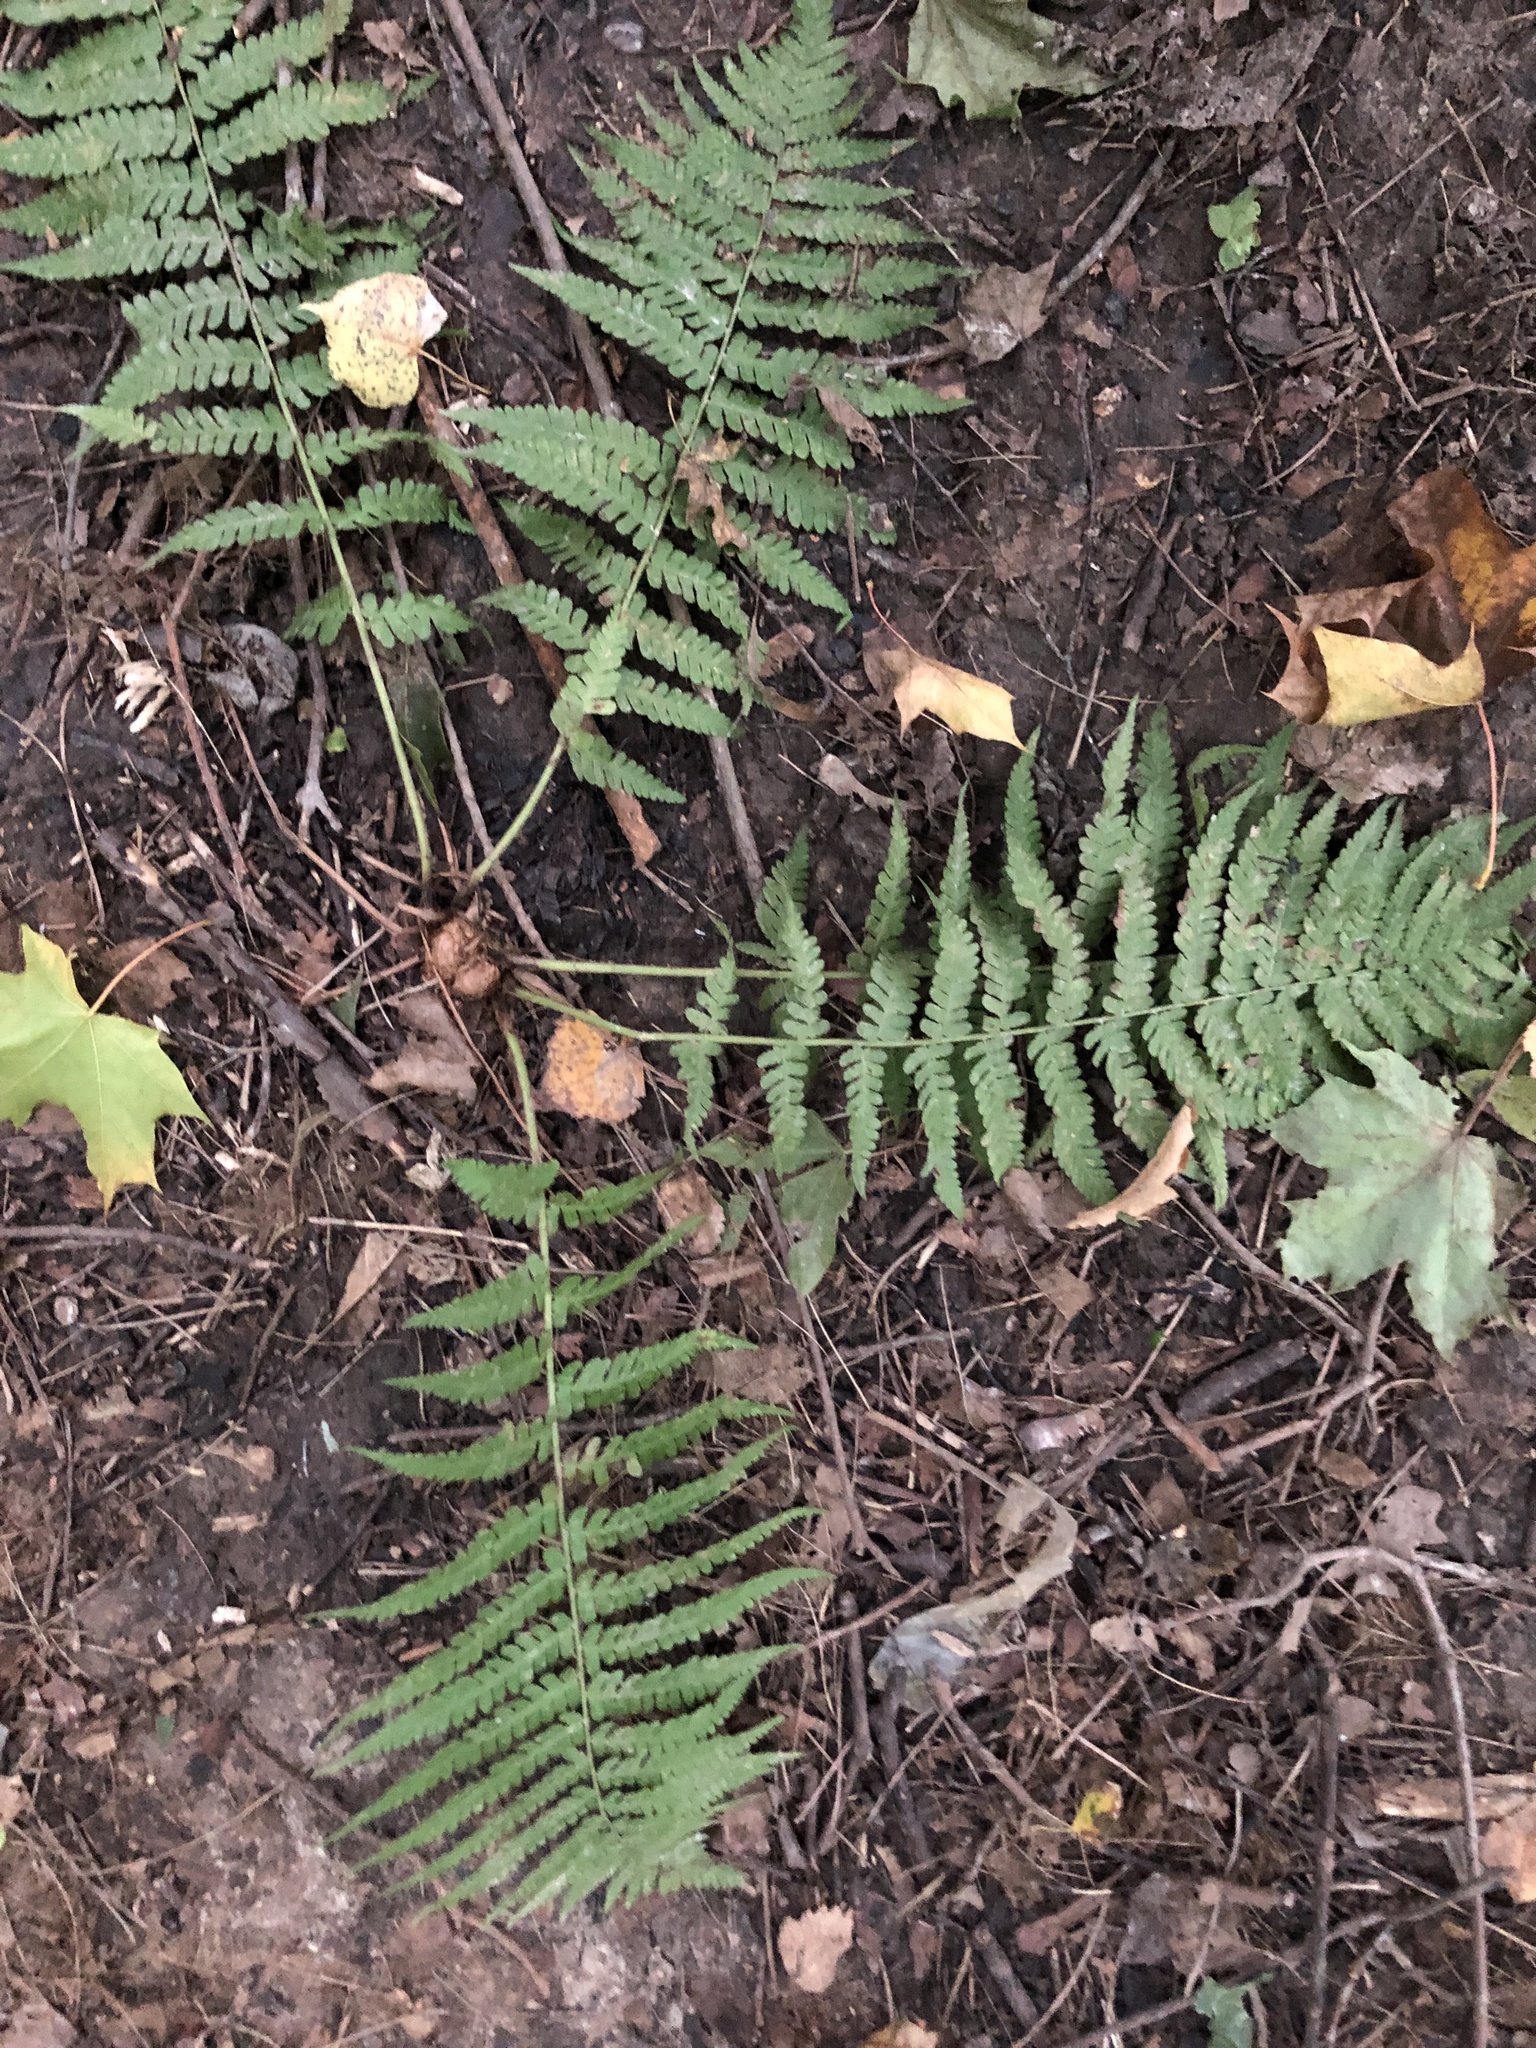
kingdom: Plantae
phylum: Tracheophyta
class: Polypodiopsida
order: Polypodiales
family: Dryopteridaceae
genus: Dryopteris
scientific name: Dryopteris filix-mas
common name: Male fern
